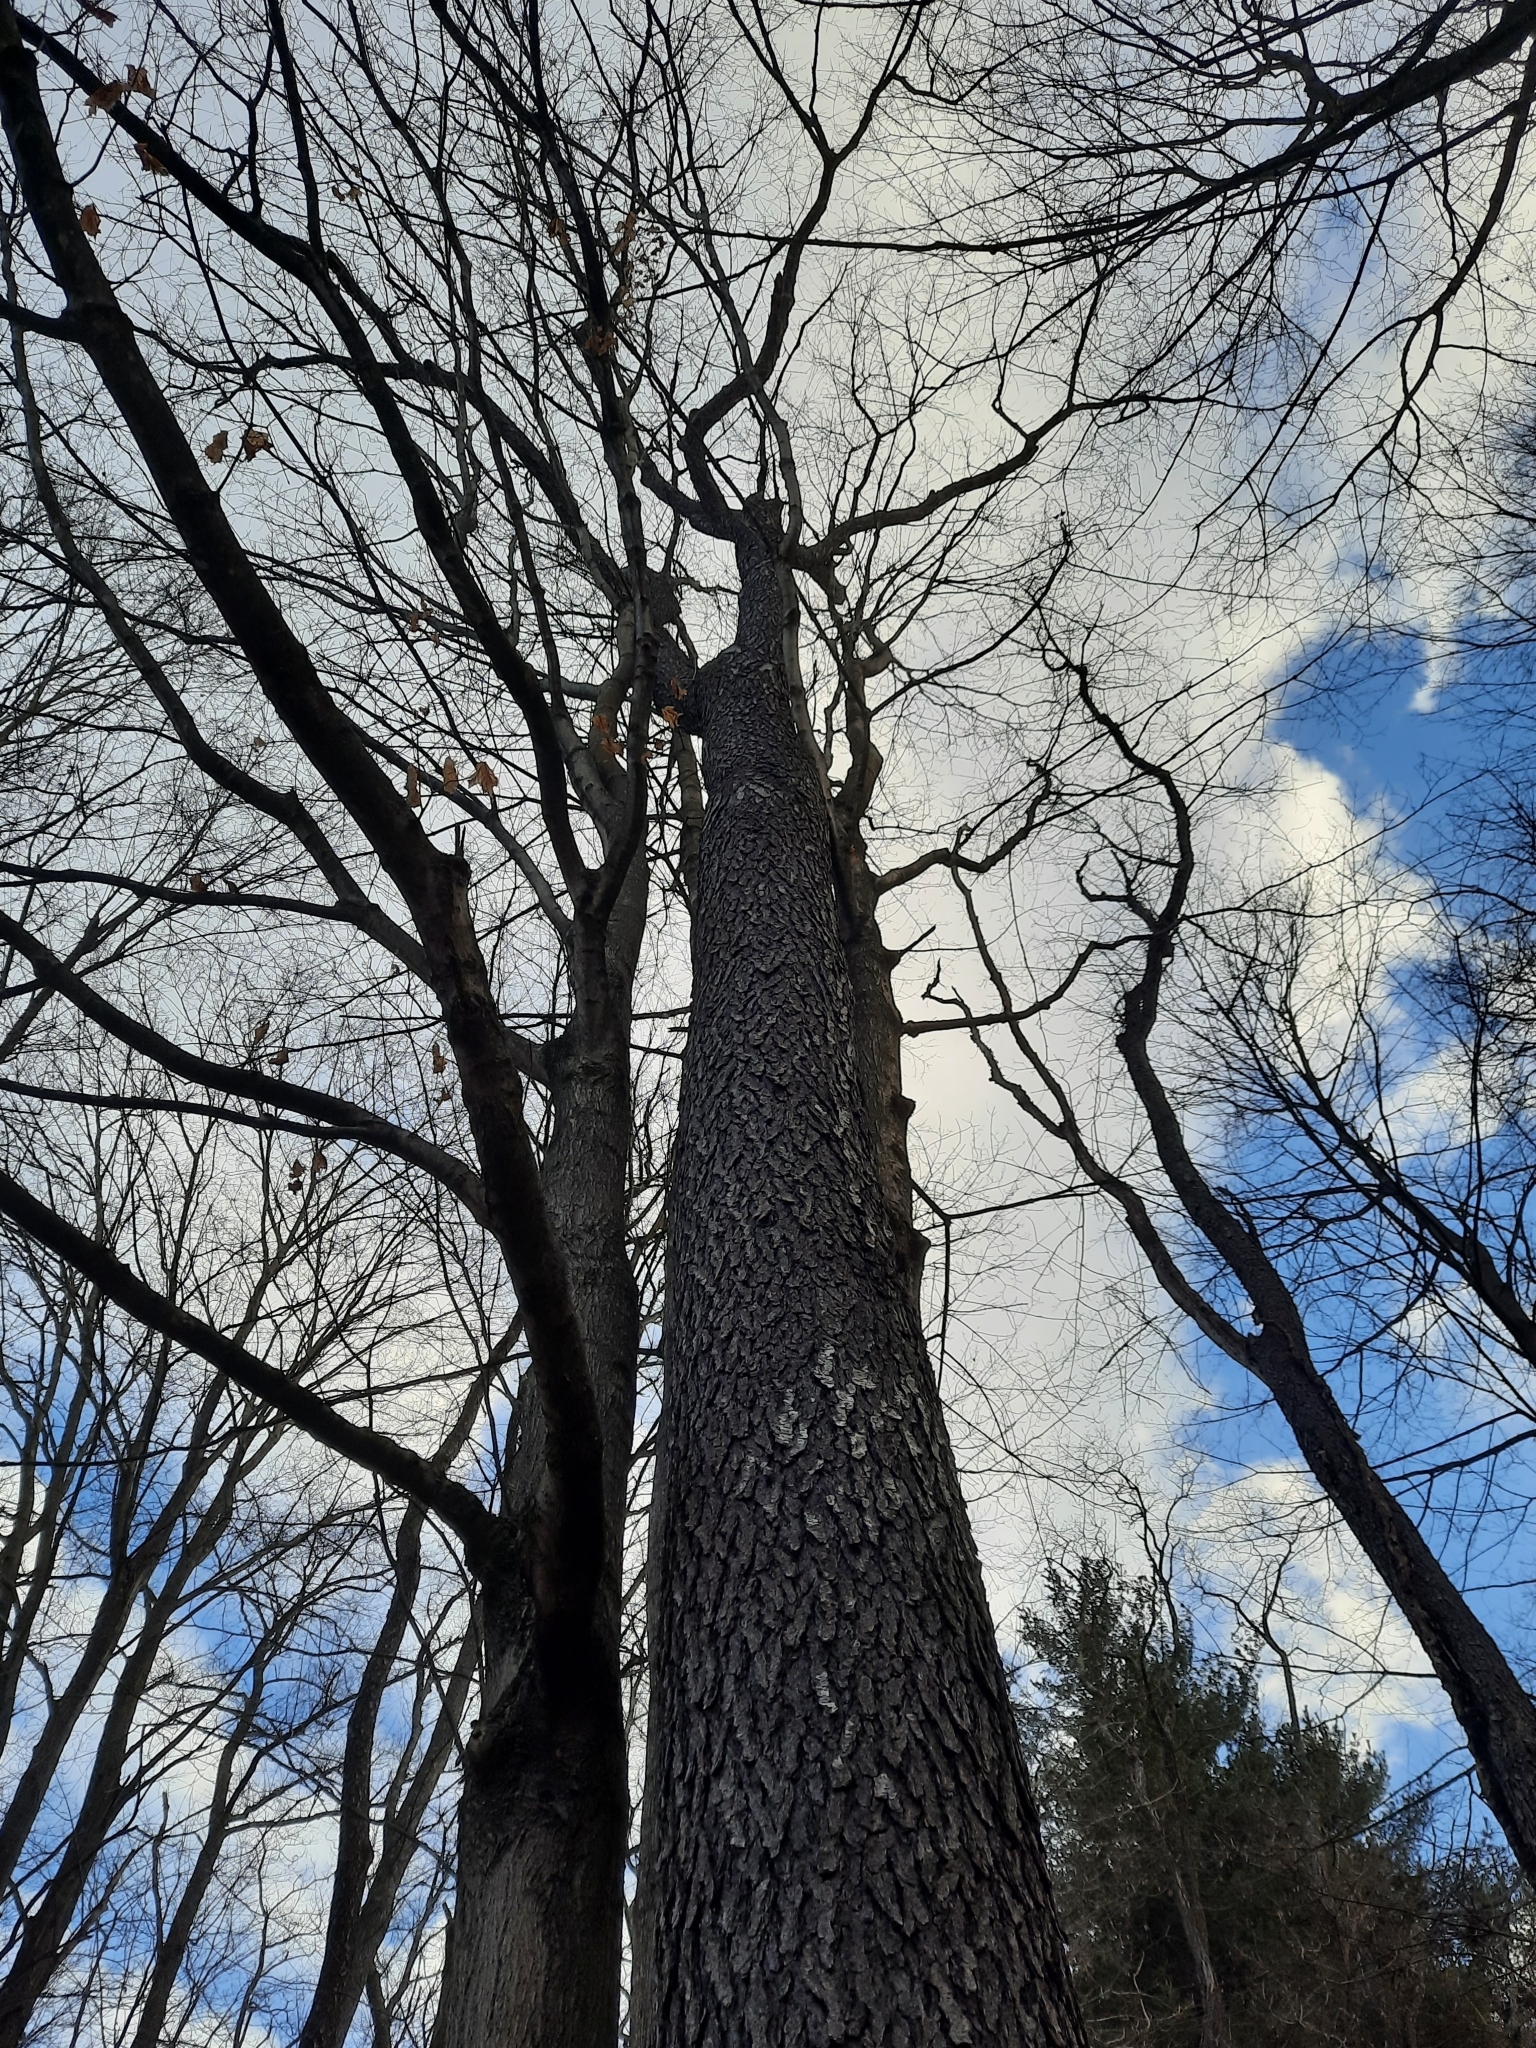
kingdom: Plantae
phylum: Tracheophyta
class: Magnoliopsida
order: Rosales
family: Rosaceae
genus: Prunus
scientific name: Prunus serotina
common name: Black cherry
